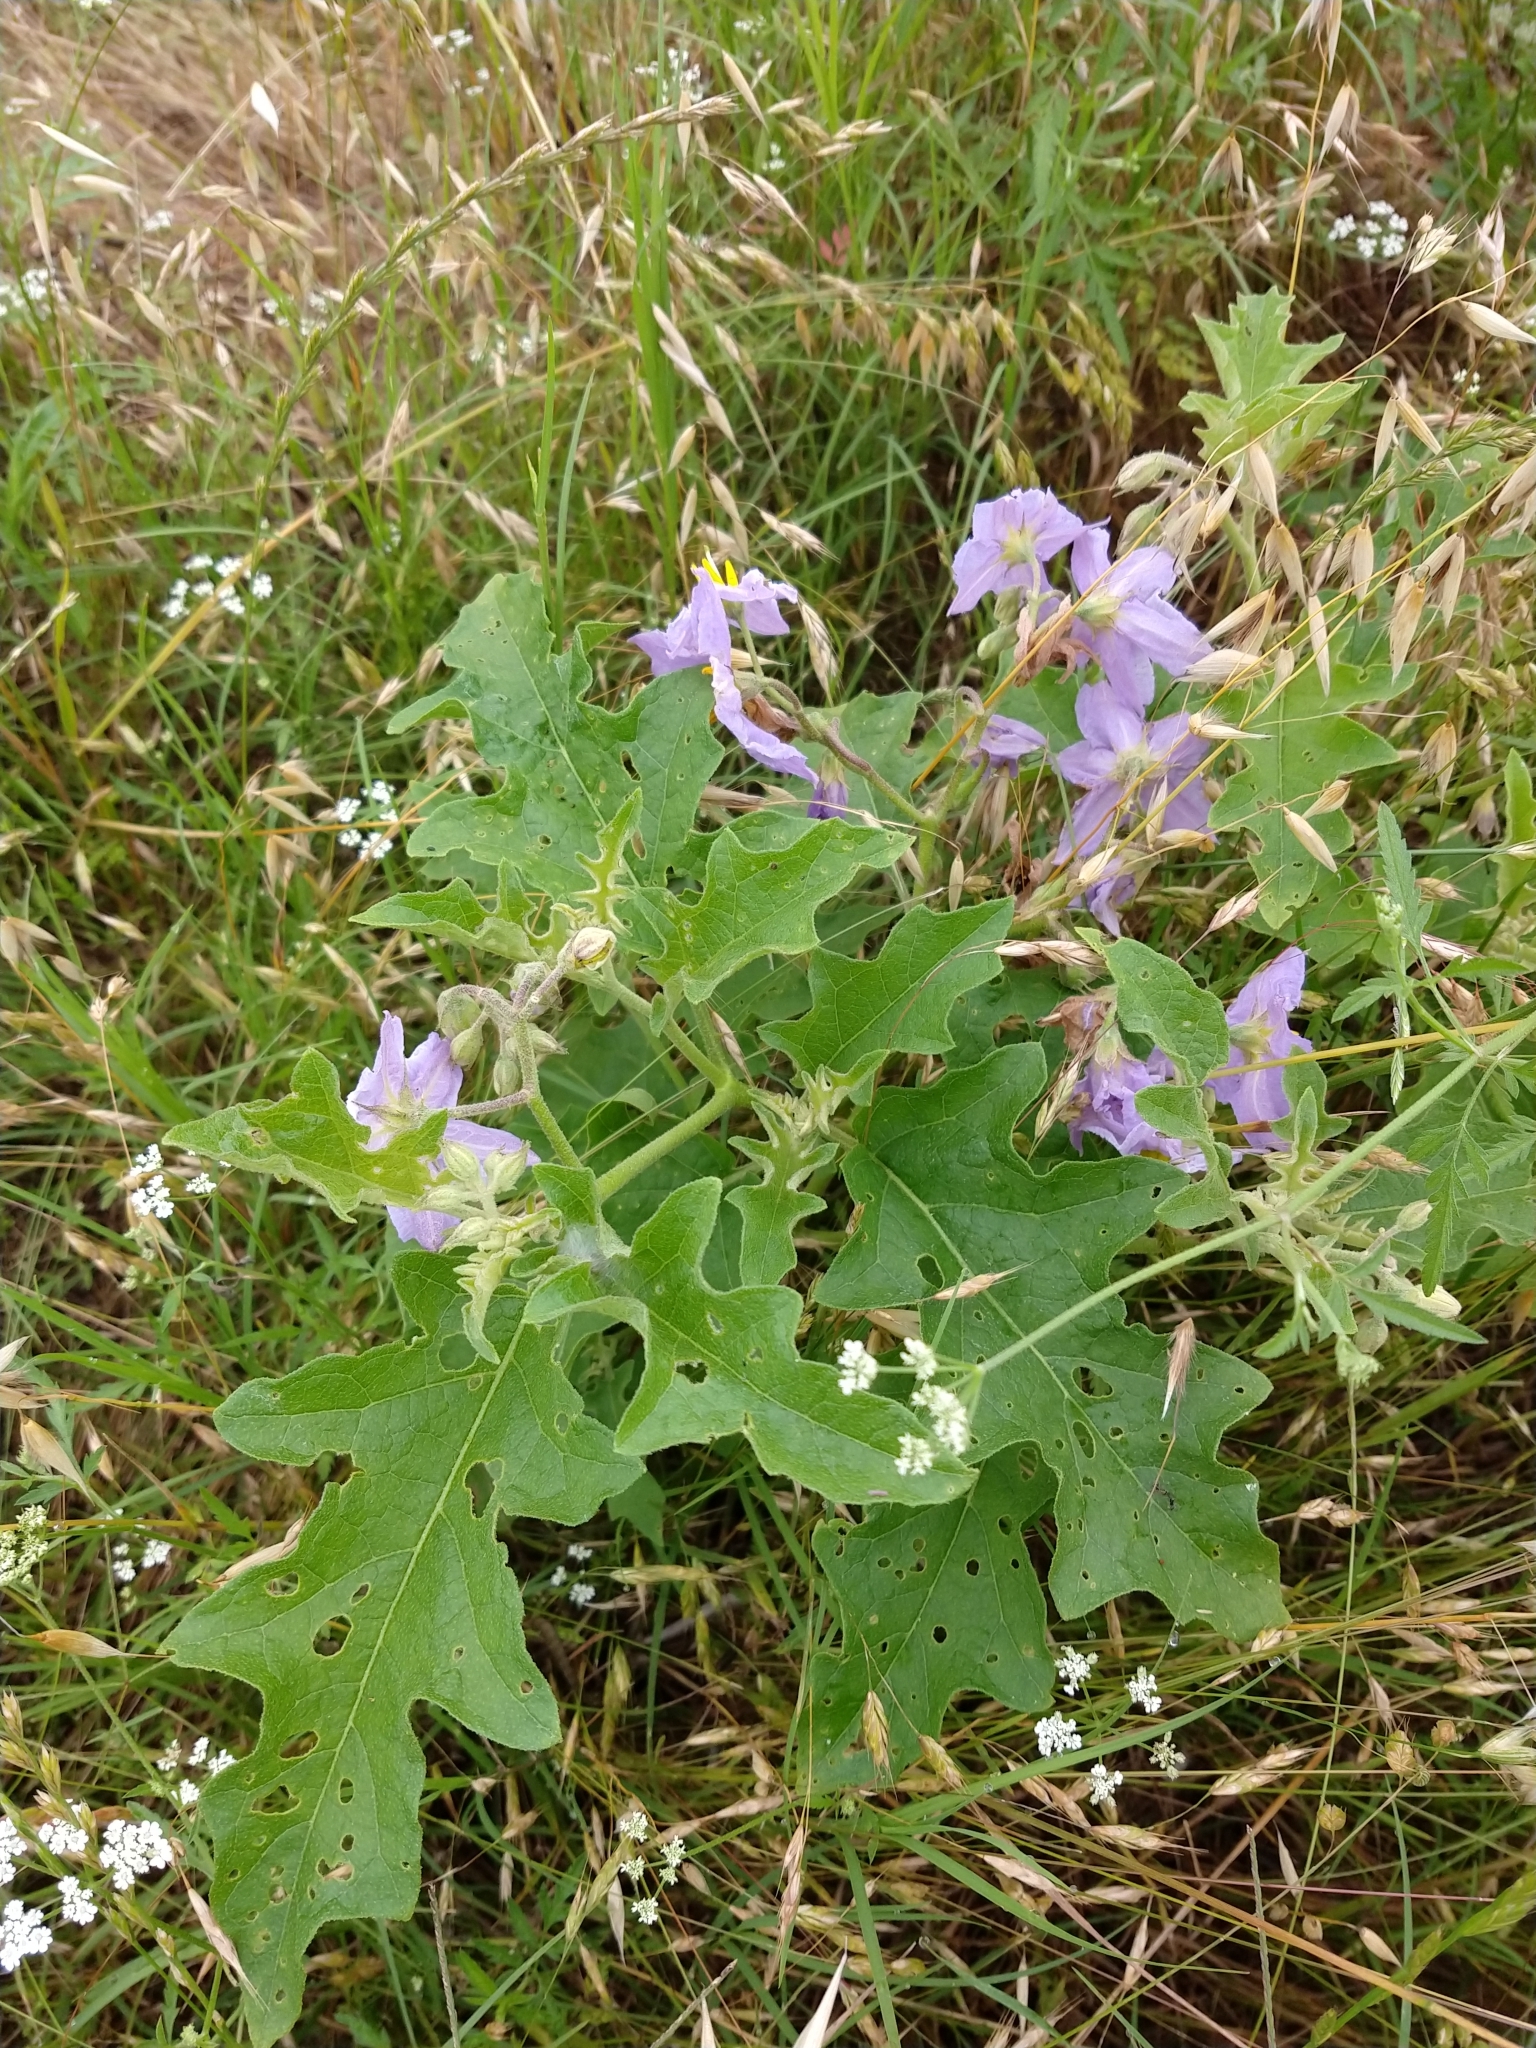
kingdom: Plantae
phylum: Tracheophyta
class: Magnoliopsida
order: Solanales
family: Solanaceae
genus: Solanum
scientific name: Solanum dimidiatum
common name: Carolina horse-nettle
